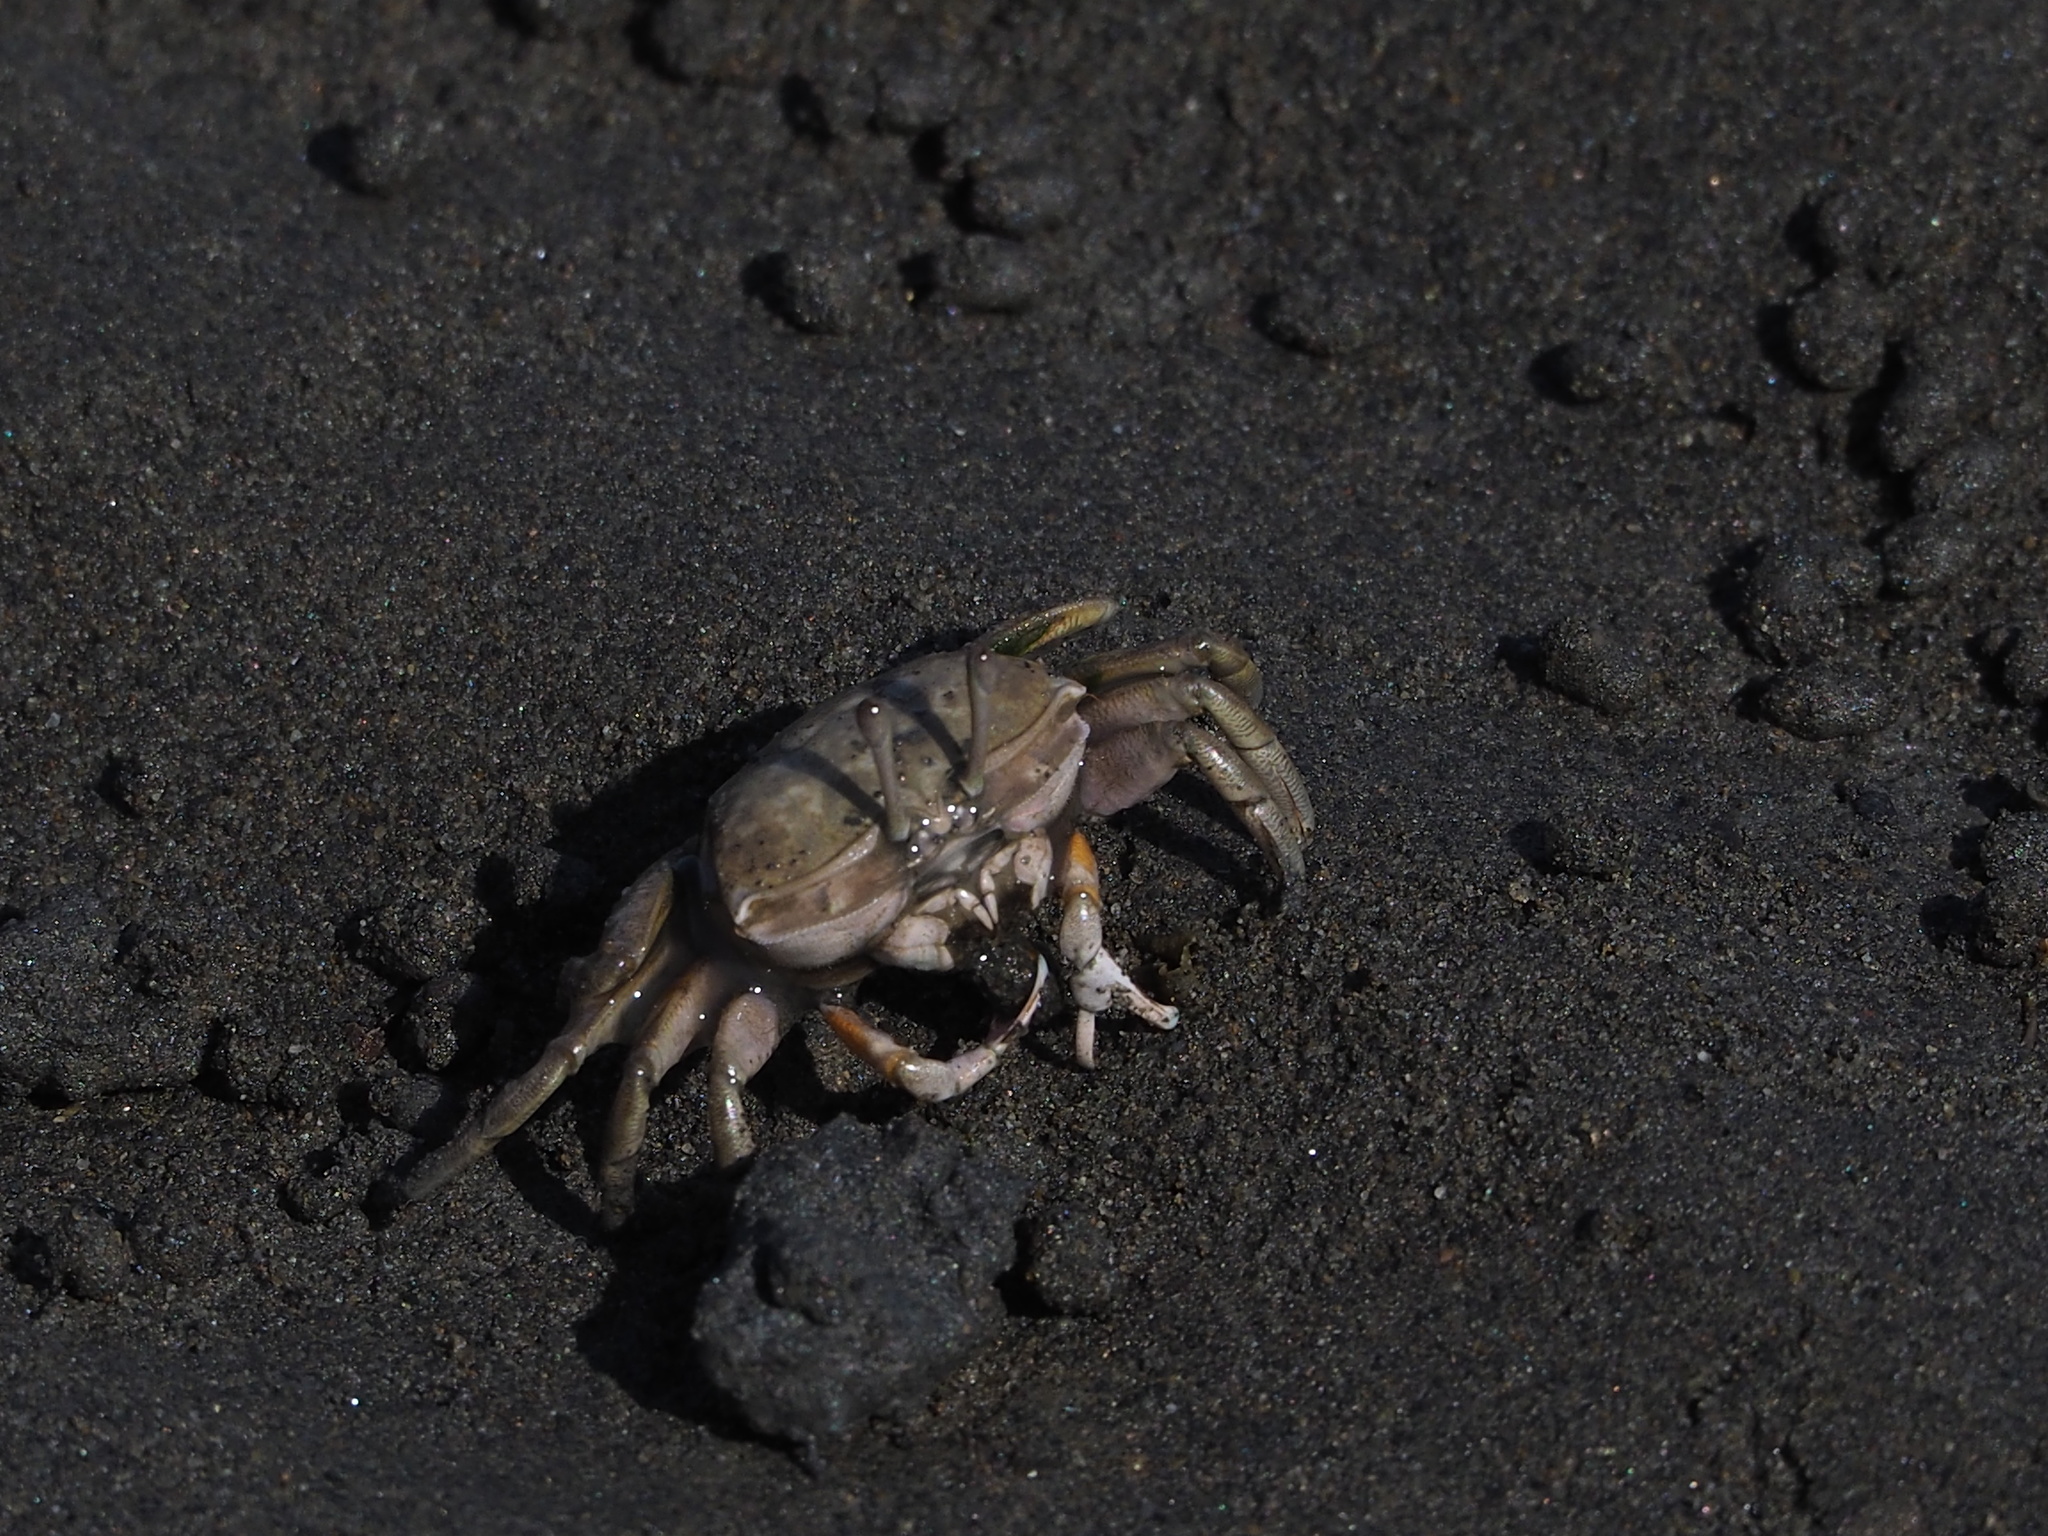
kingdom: Animalia
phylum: Arthropoda
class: Malacostraca
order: Decapoda
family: Ocypodidae
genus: Gelasimus
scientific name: Gelasimus borealis
